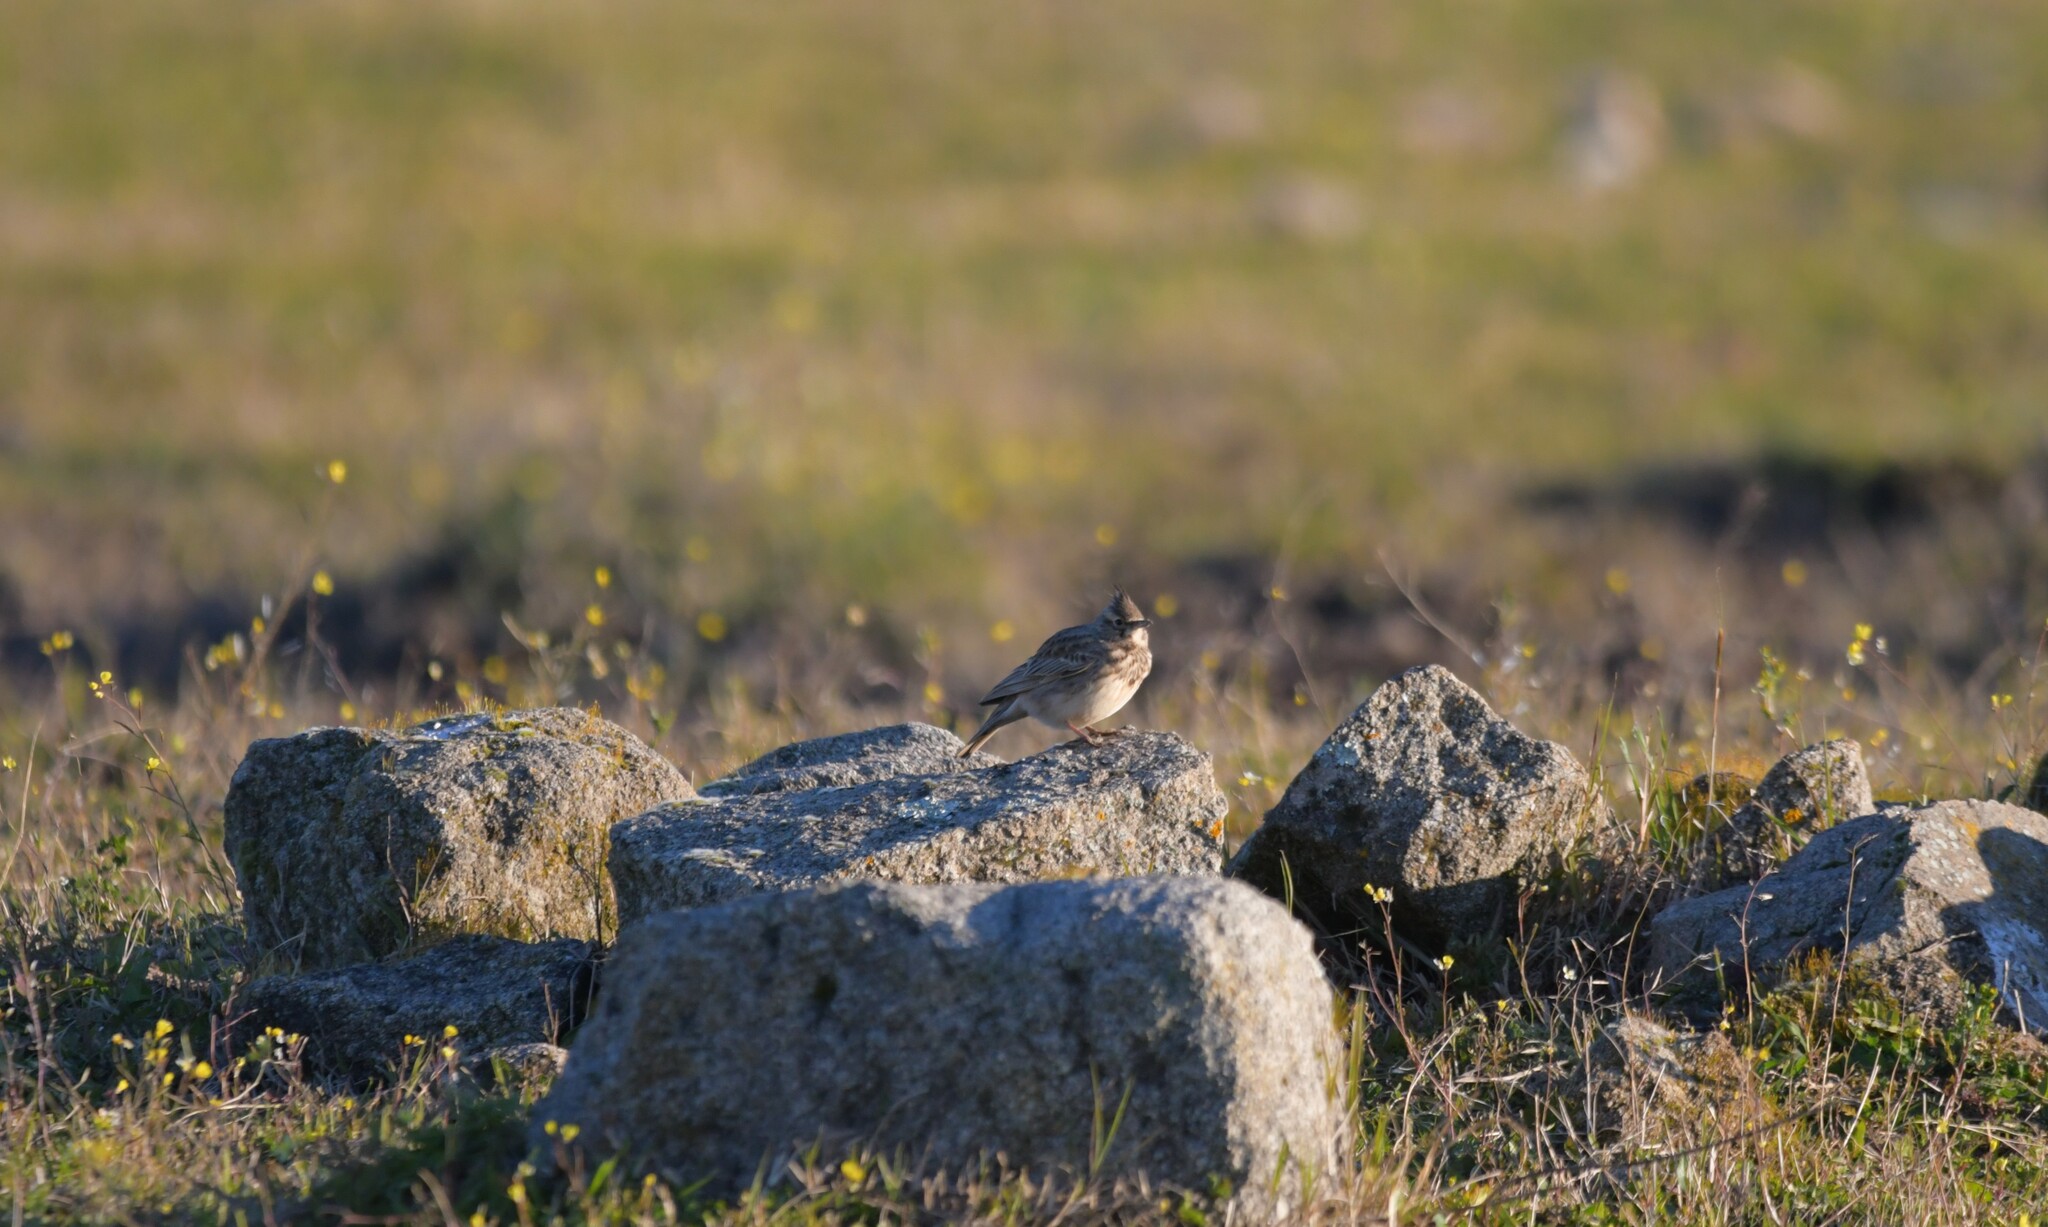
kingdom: Animalia
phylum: Chordata
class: Aves
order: Passeriformes
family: Alaudidae
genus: Galerida
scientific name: Galerida cristata
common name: Crested lark
